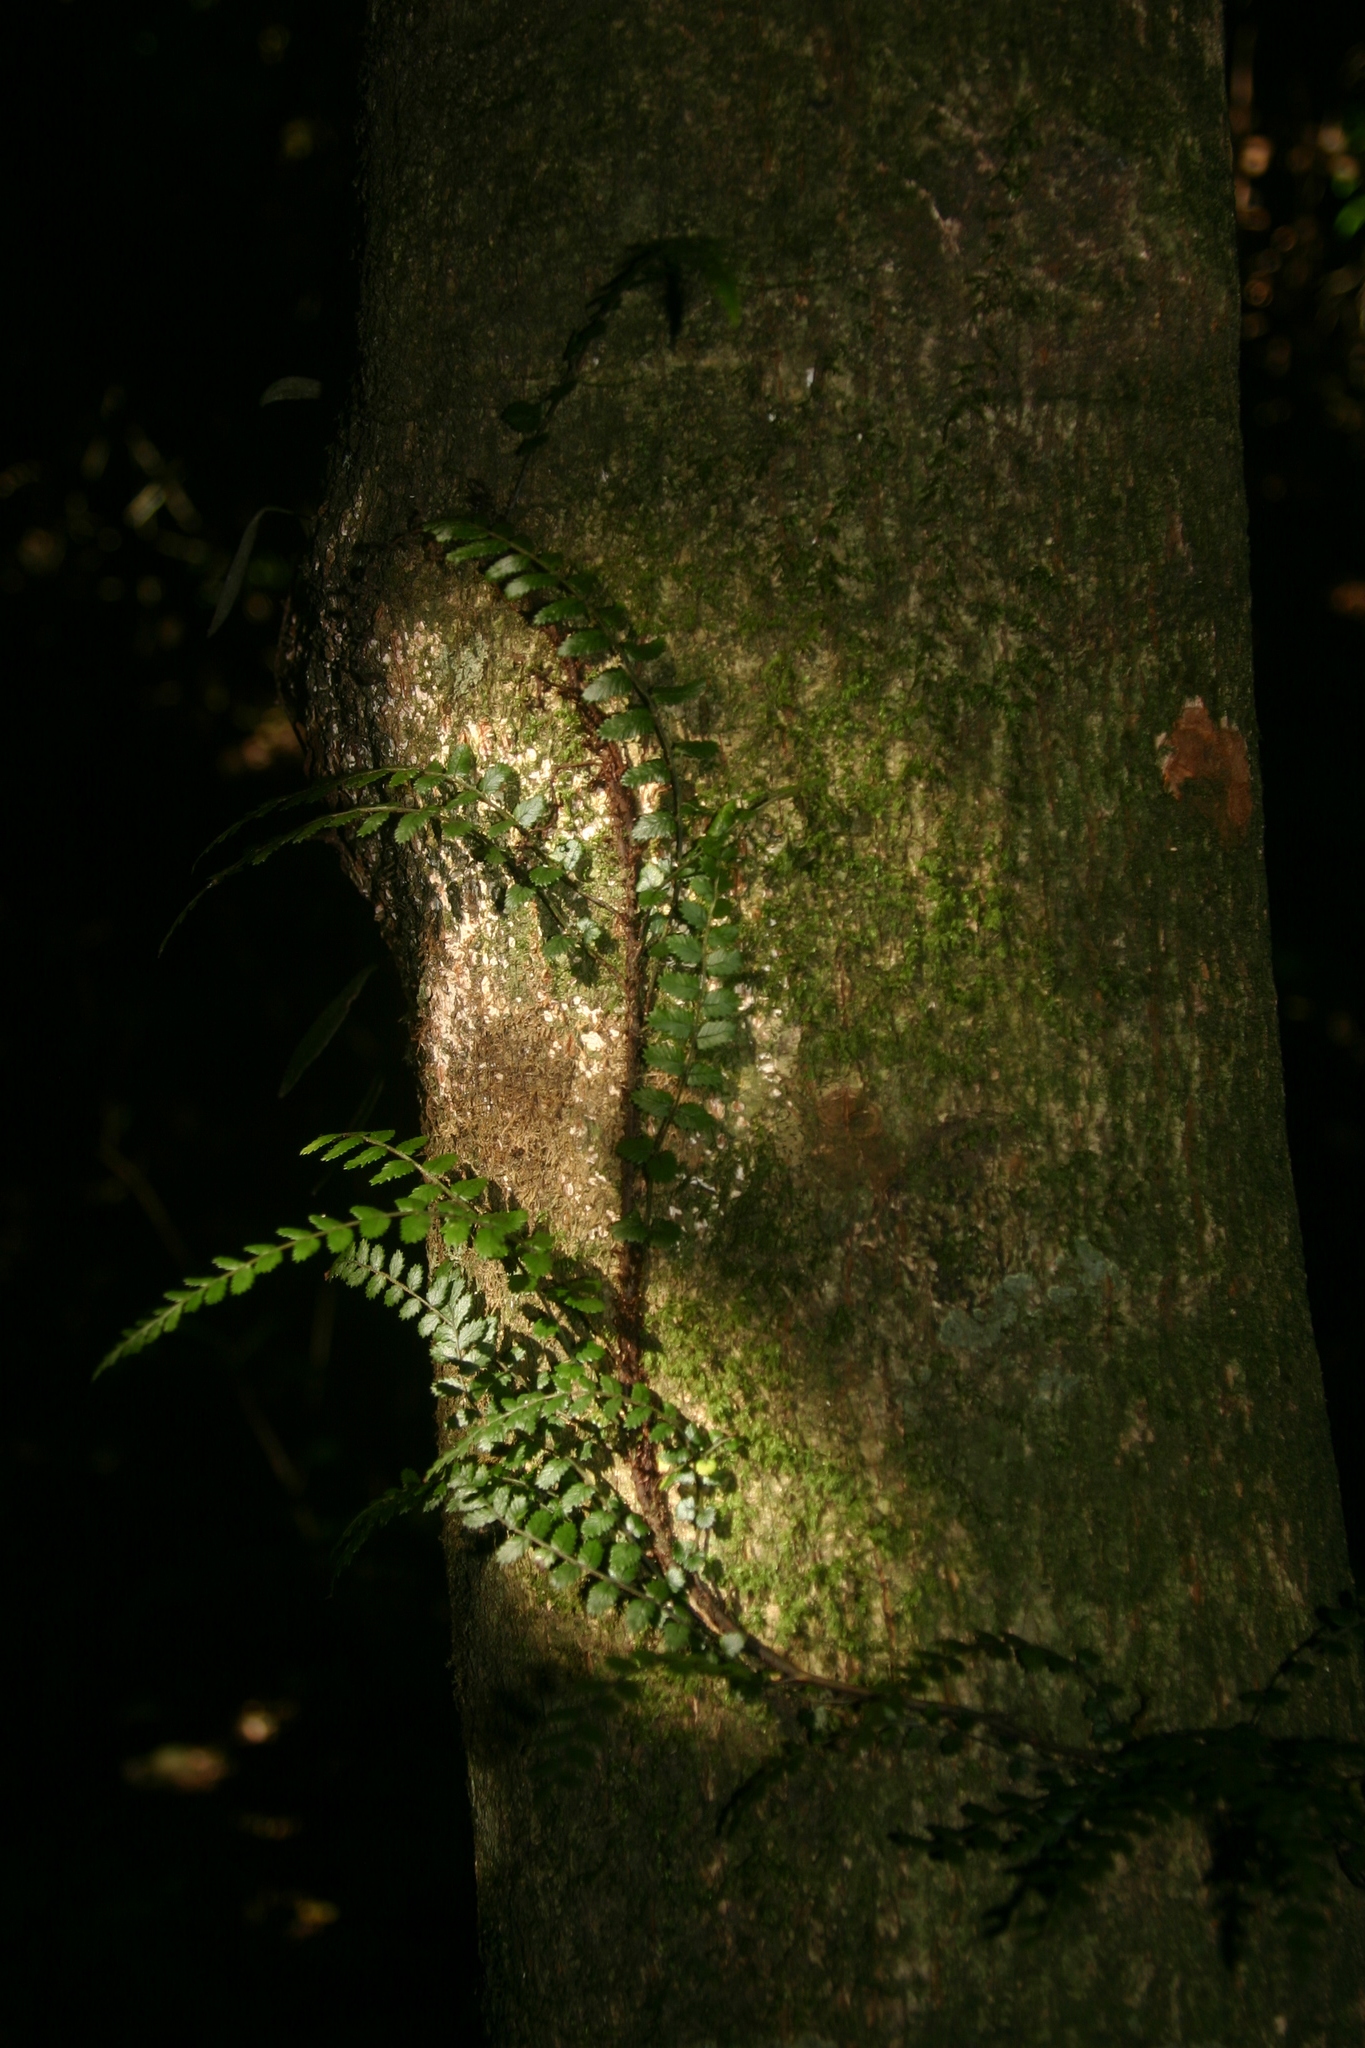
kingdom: Plantae
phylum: Tracheophyta
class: Polypodiopsida
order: Polypodiales
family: Blechnaceae
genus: Icarus
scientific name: Icarus filiformis
